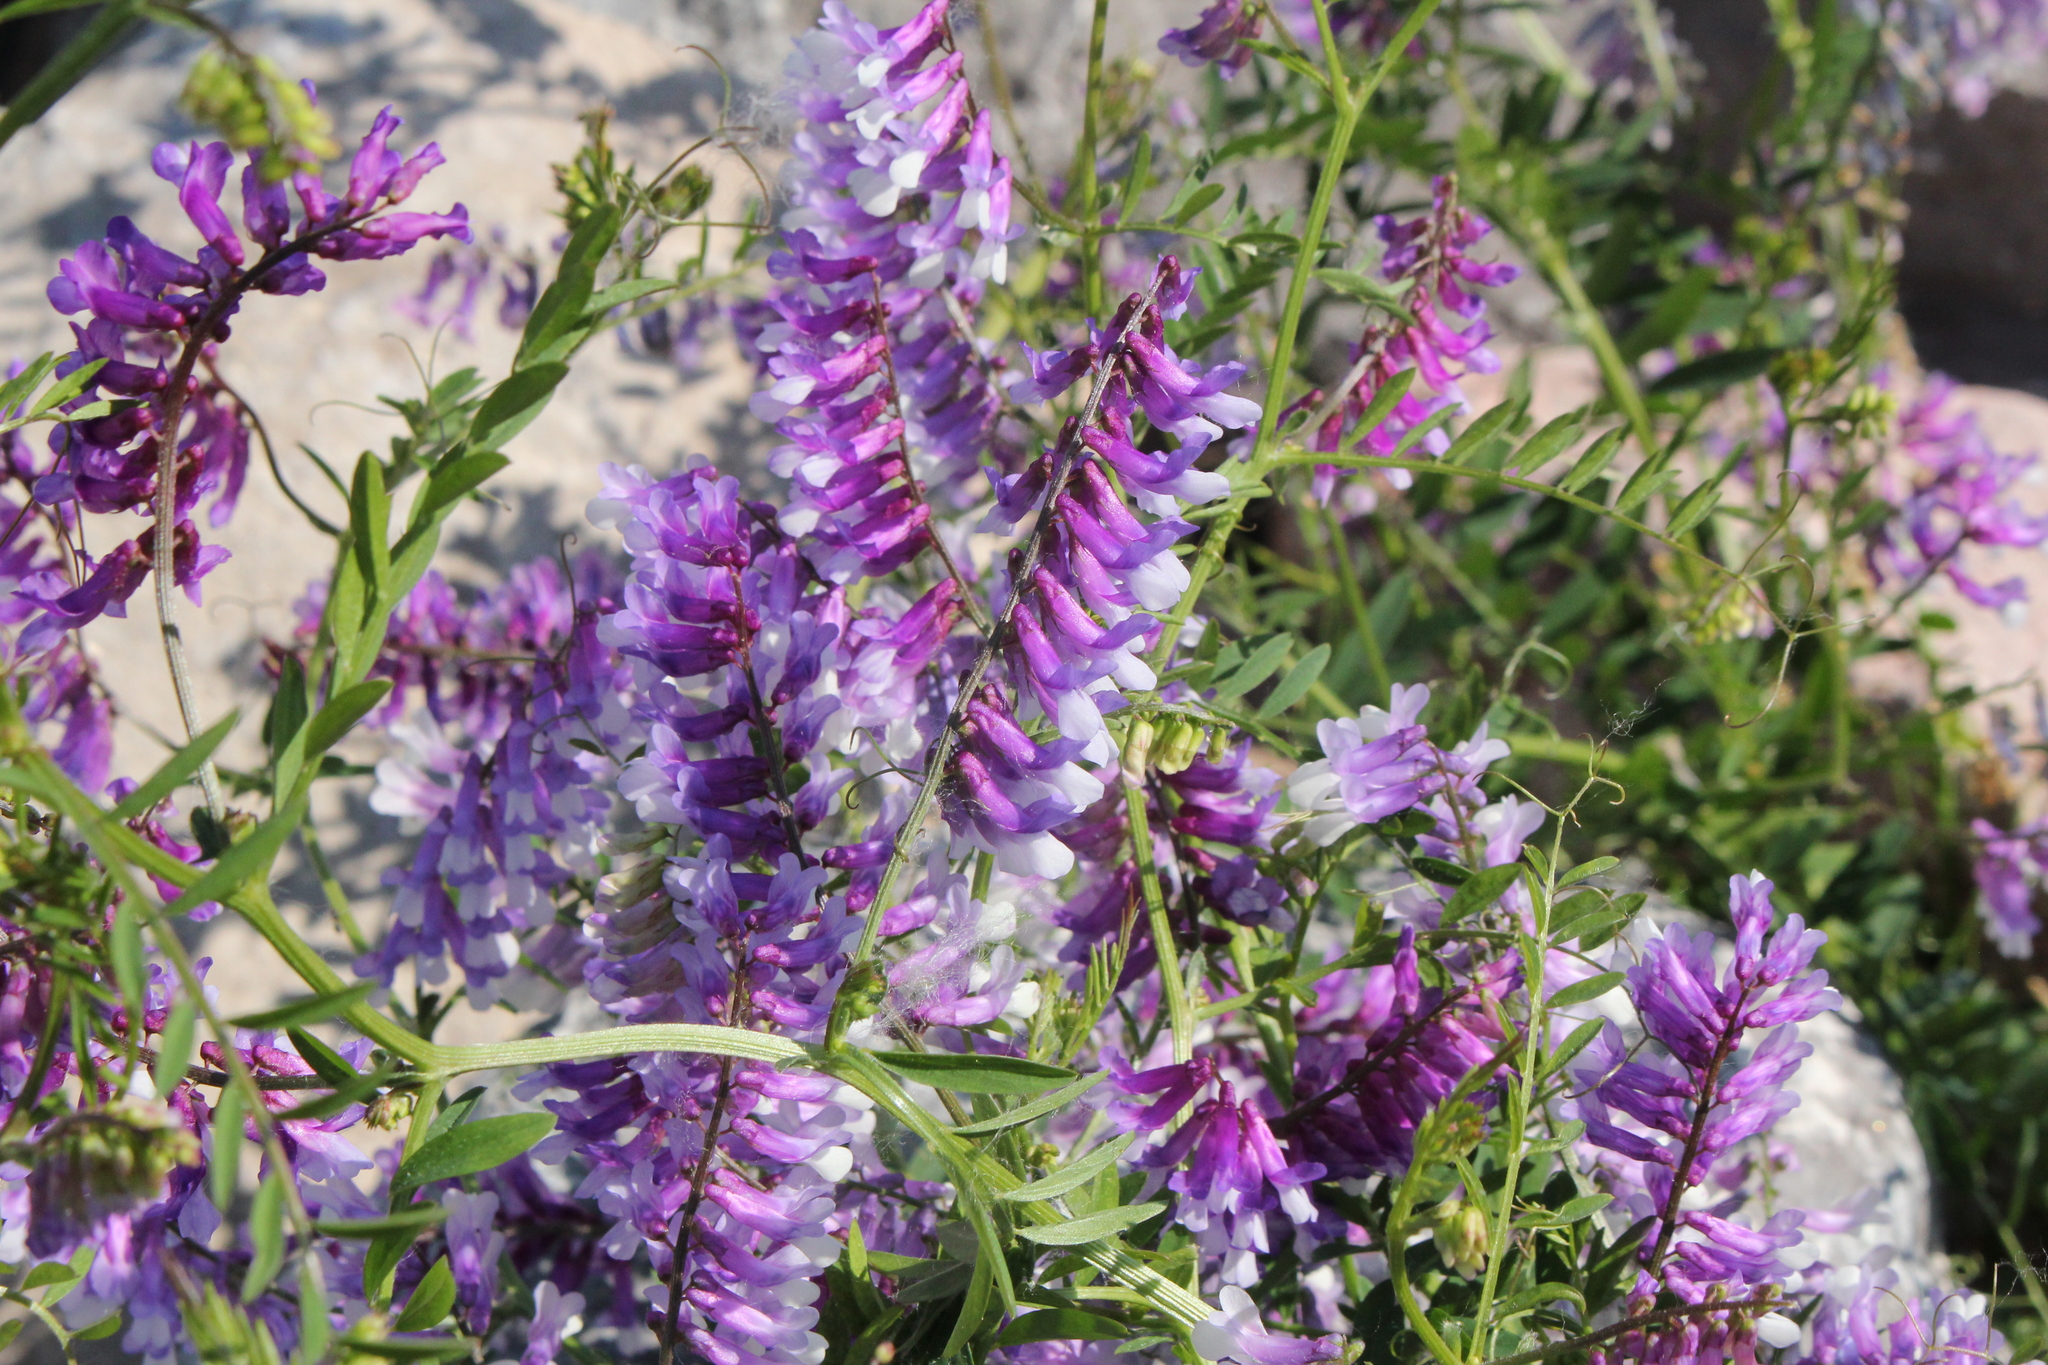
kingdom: Plantae
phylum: Tracheophyta
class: Magnoliopsida
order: Fabales
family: Fabaceae
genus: Vicia
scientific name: Vicia villosa
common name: Fodder vetch
